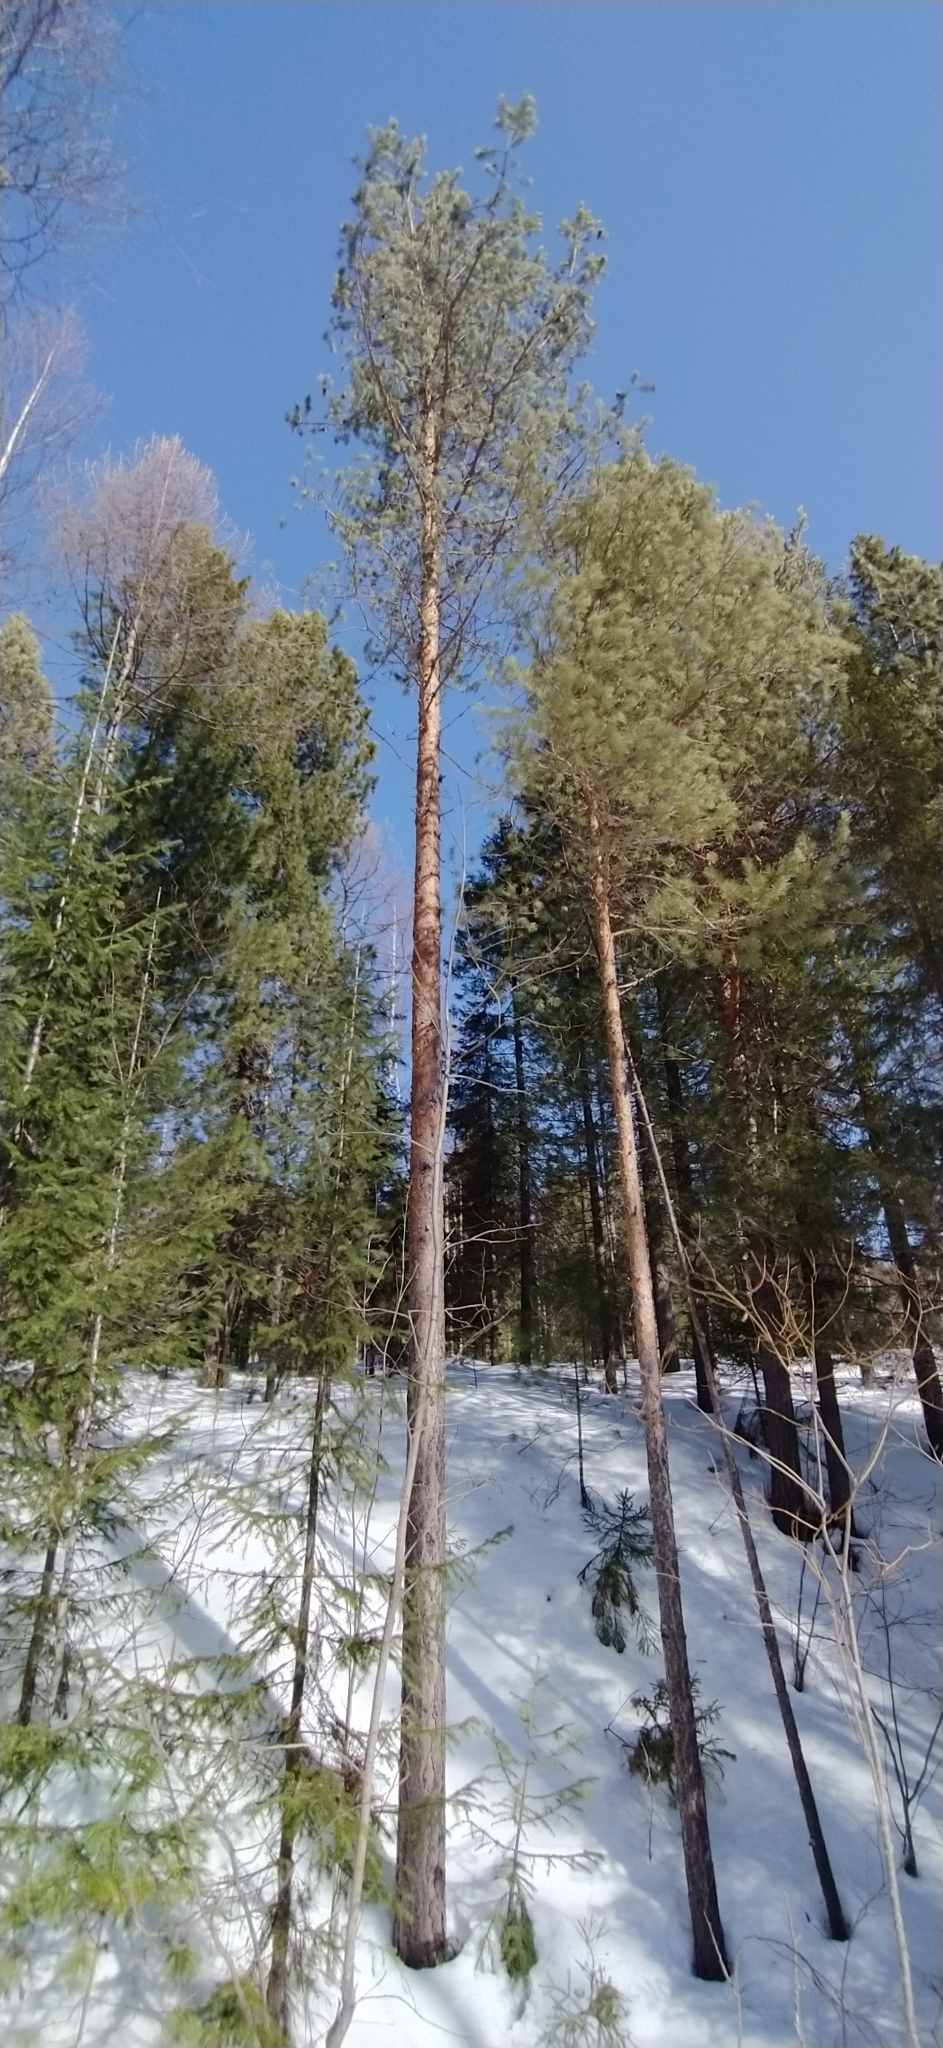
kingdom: Plantae
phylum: Tracheophyta
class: Pinopsida
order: Pinales
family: Pinaceae
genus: Pinus
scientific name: Pinus sylvestris
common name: Scots pine
